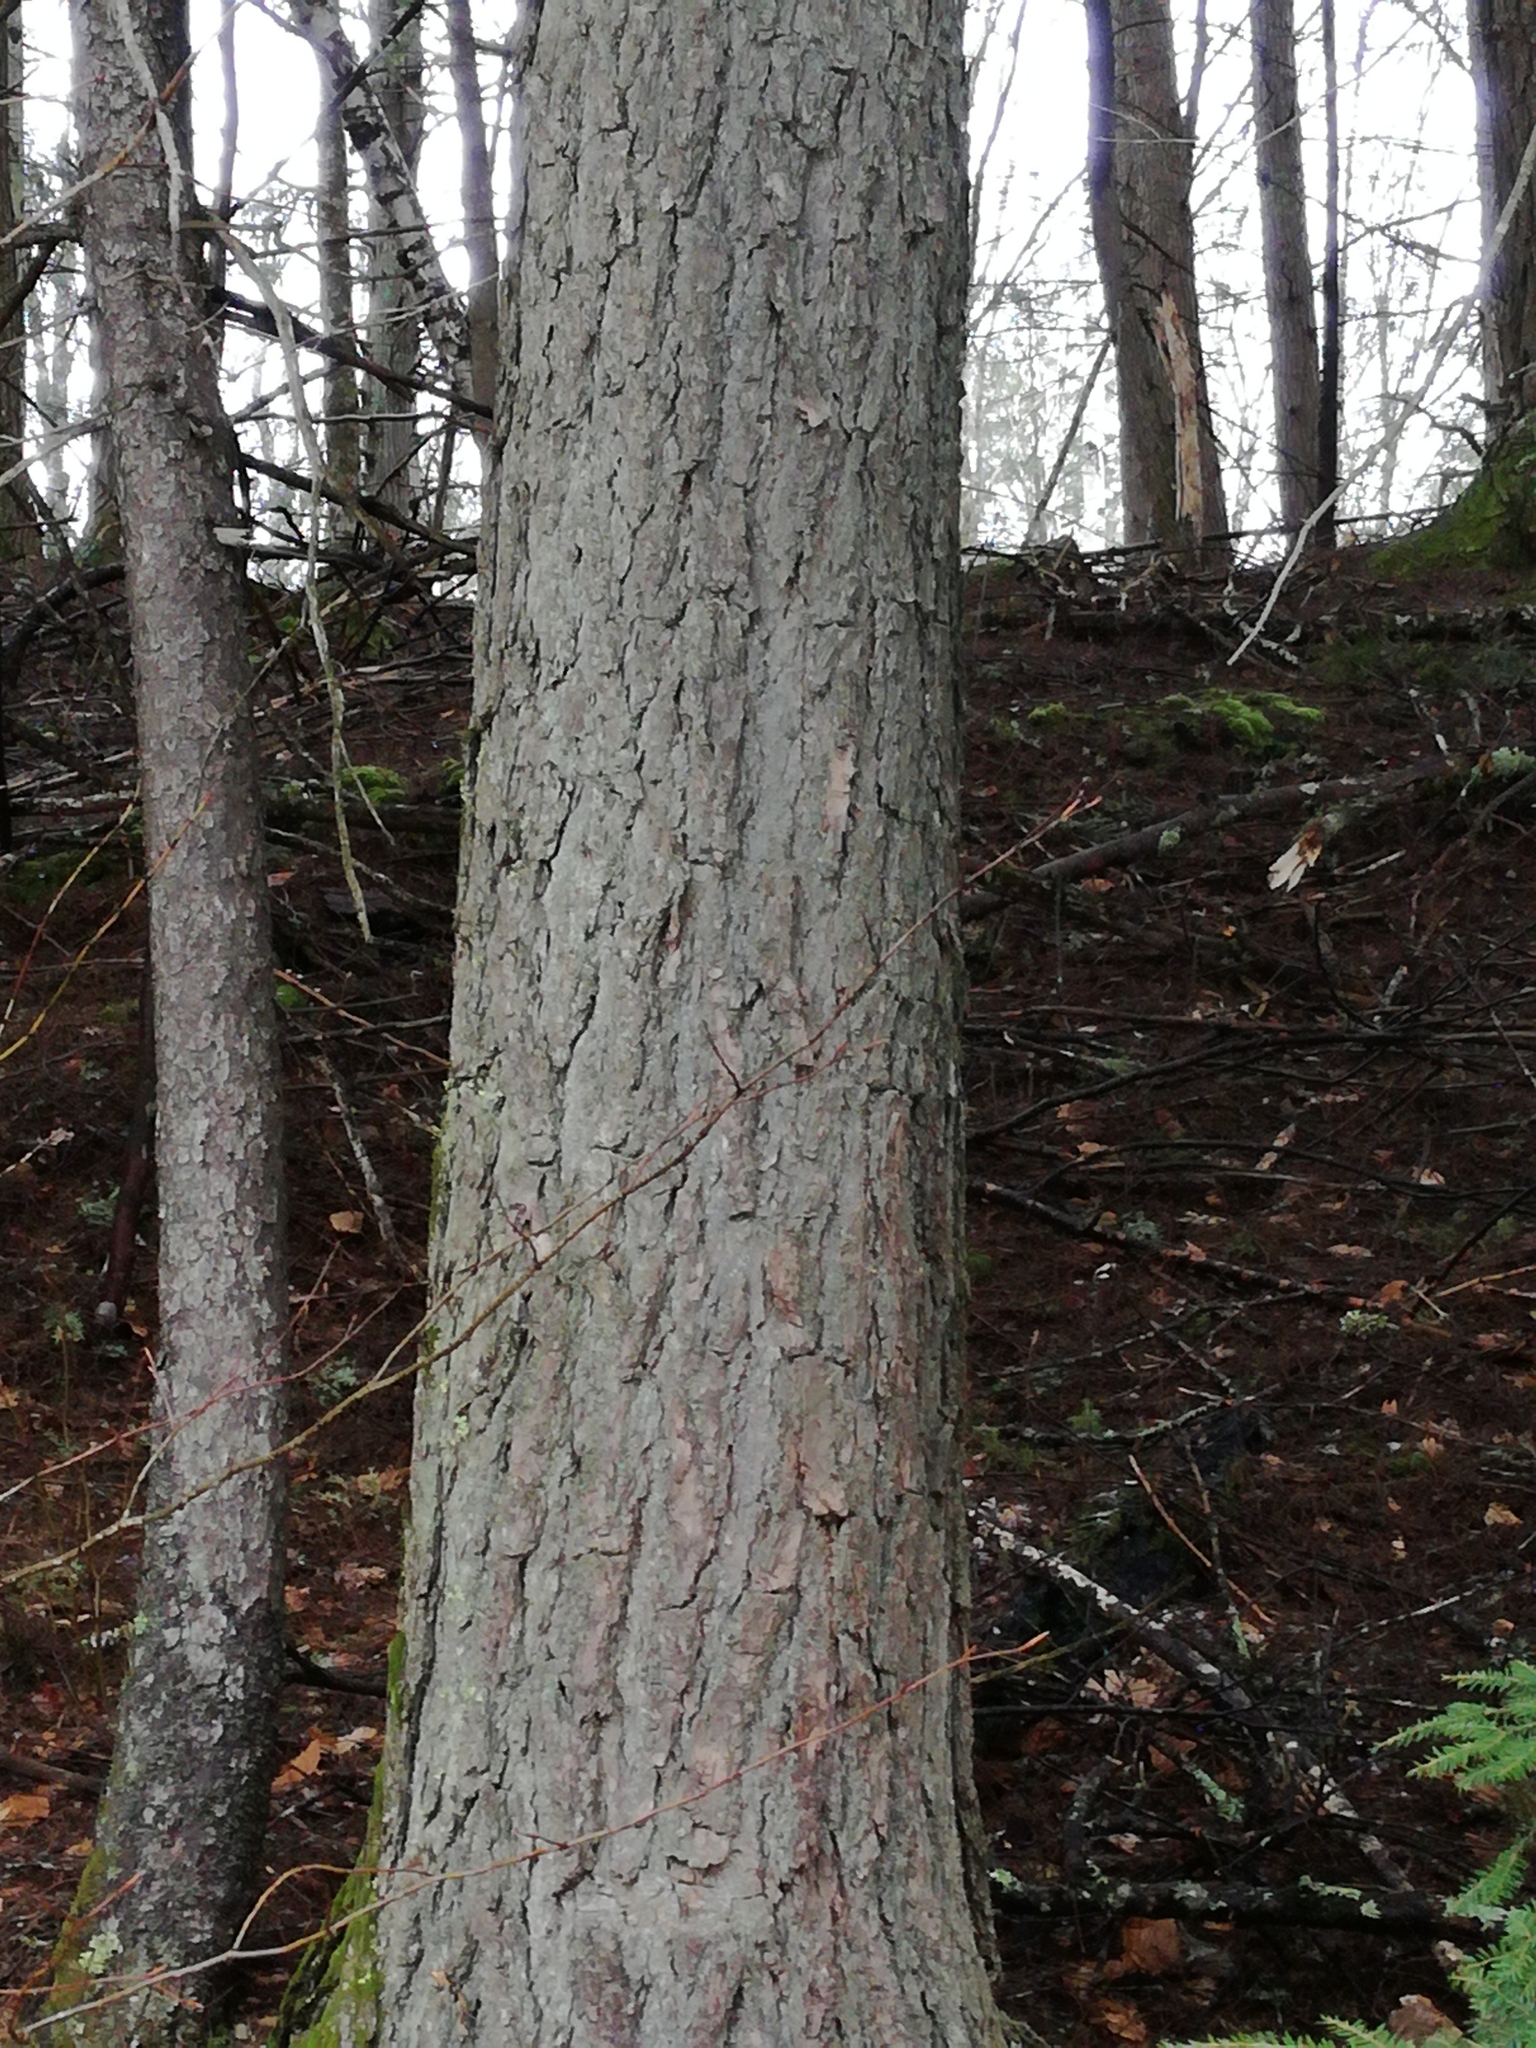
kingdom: Plantae
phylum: Tracheophyta
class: Pinopsida
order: Pinales
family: Pinaceae
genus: Tsuga
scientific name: Tsuga canadensis
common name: Eastern hemlock
